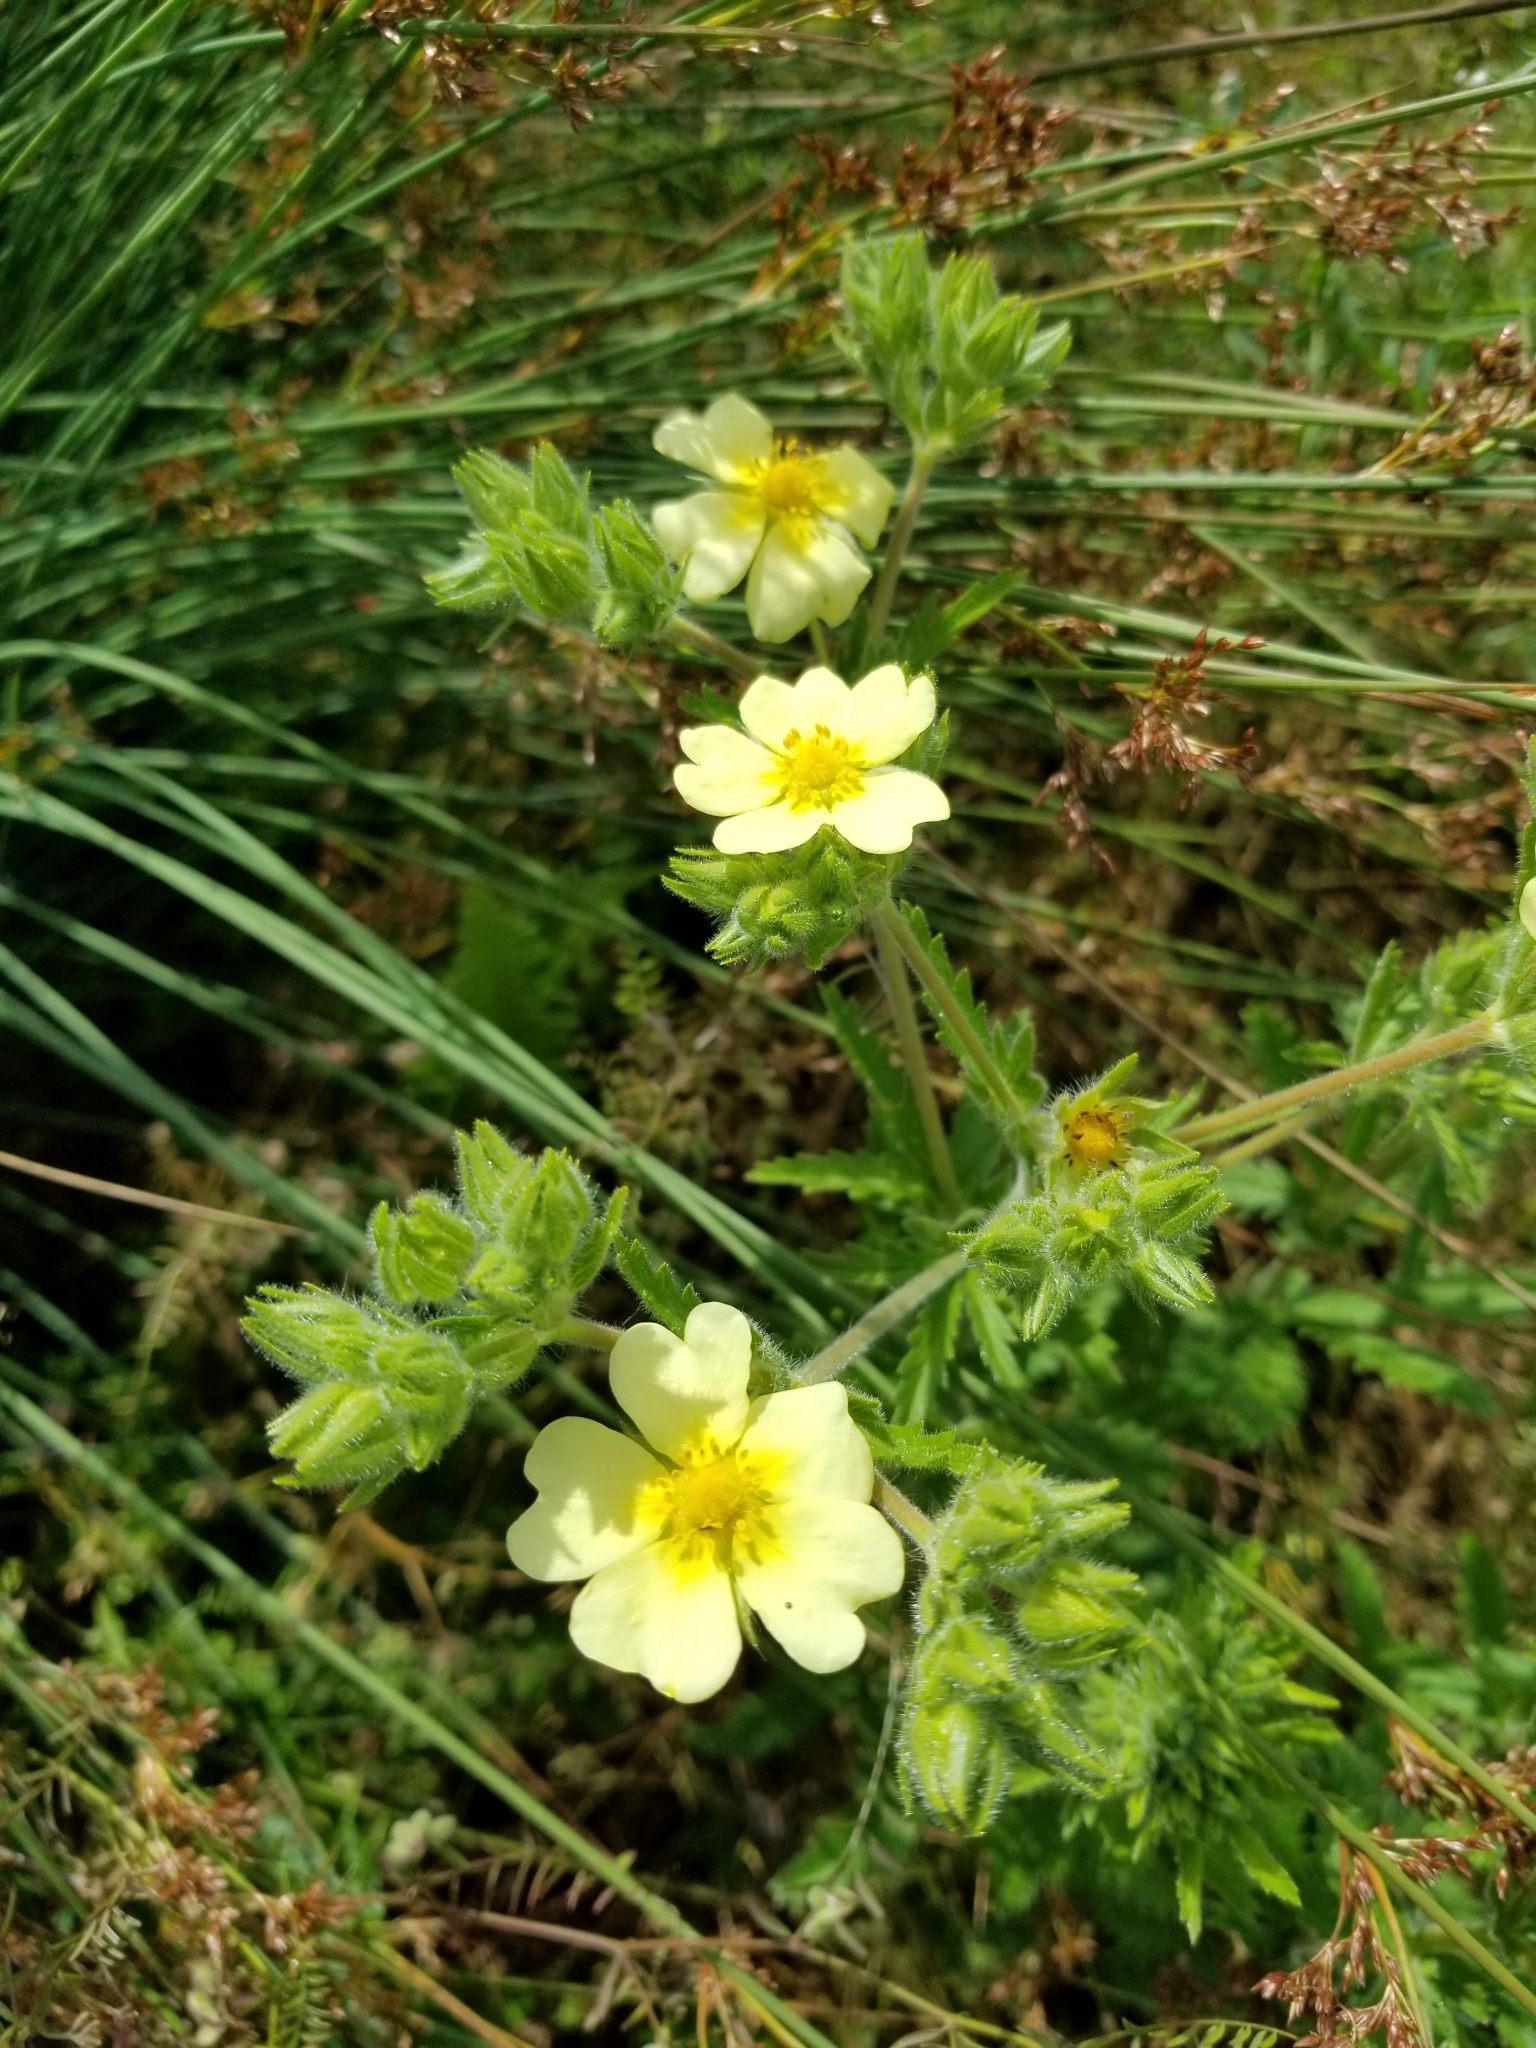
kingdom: Plantae
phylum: Tracheophyta
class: Magnoliopsida
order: Rosales
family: Rosaceae
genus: Potentilla
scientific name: Potentilla recta
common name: Sulphur cinquefoil
